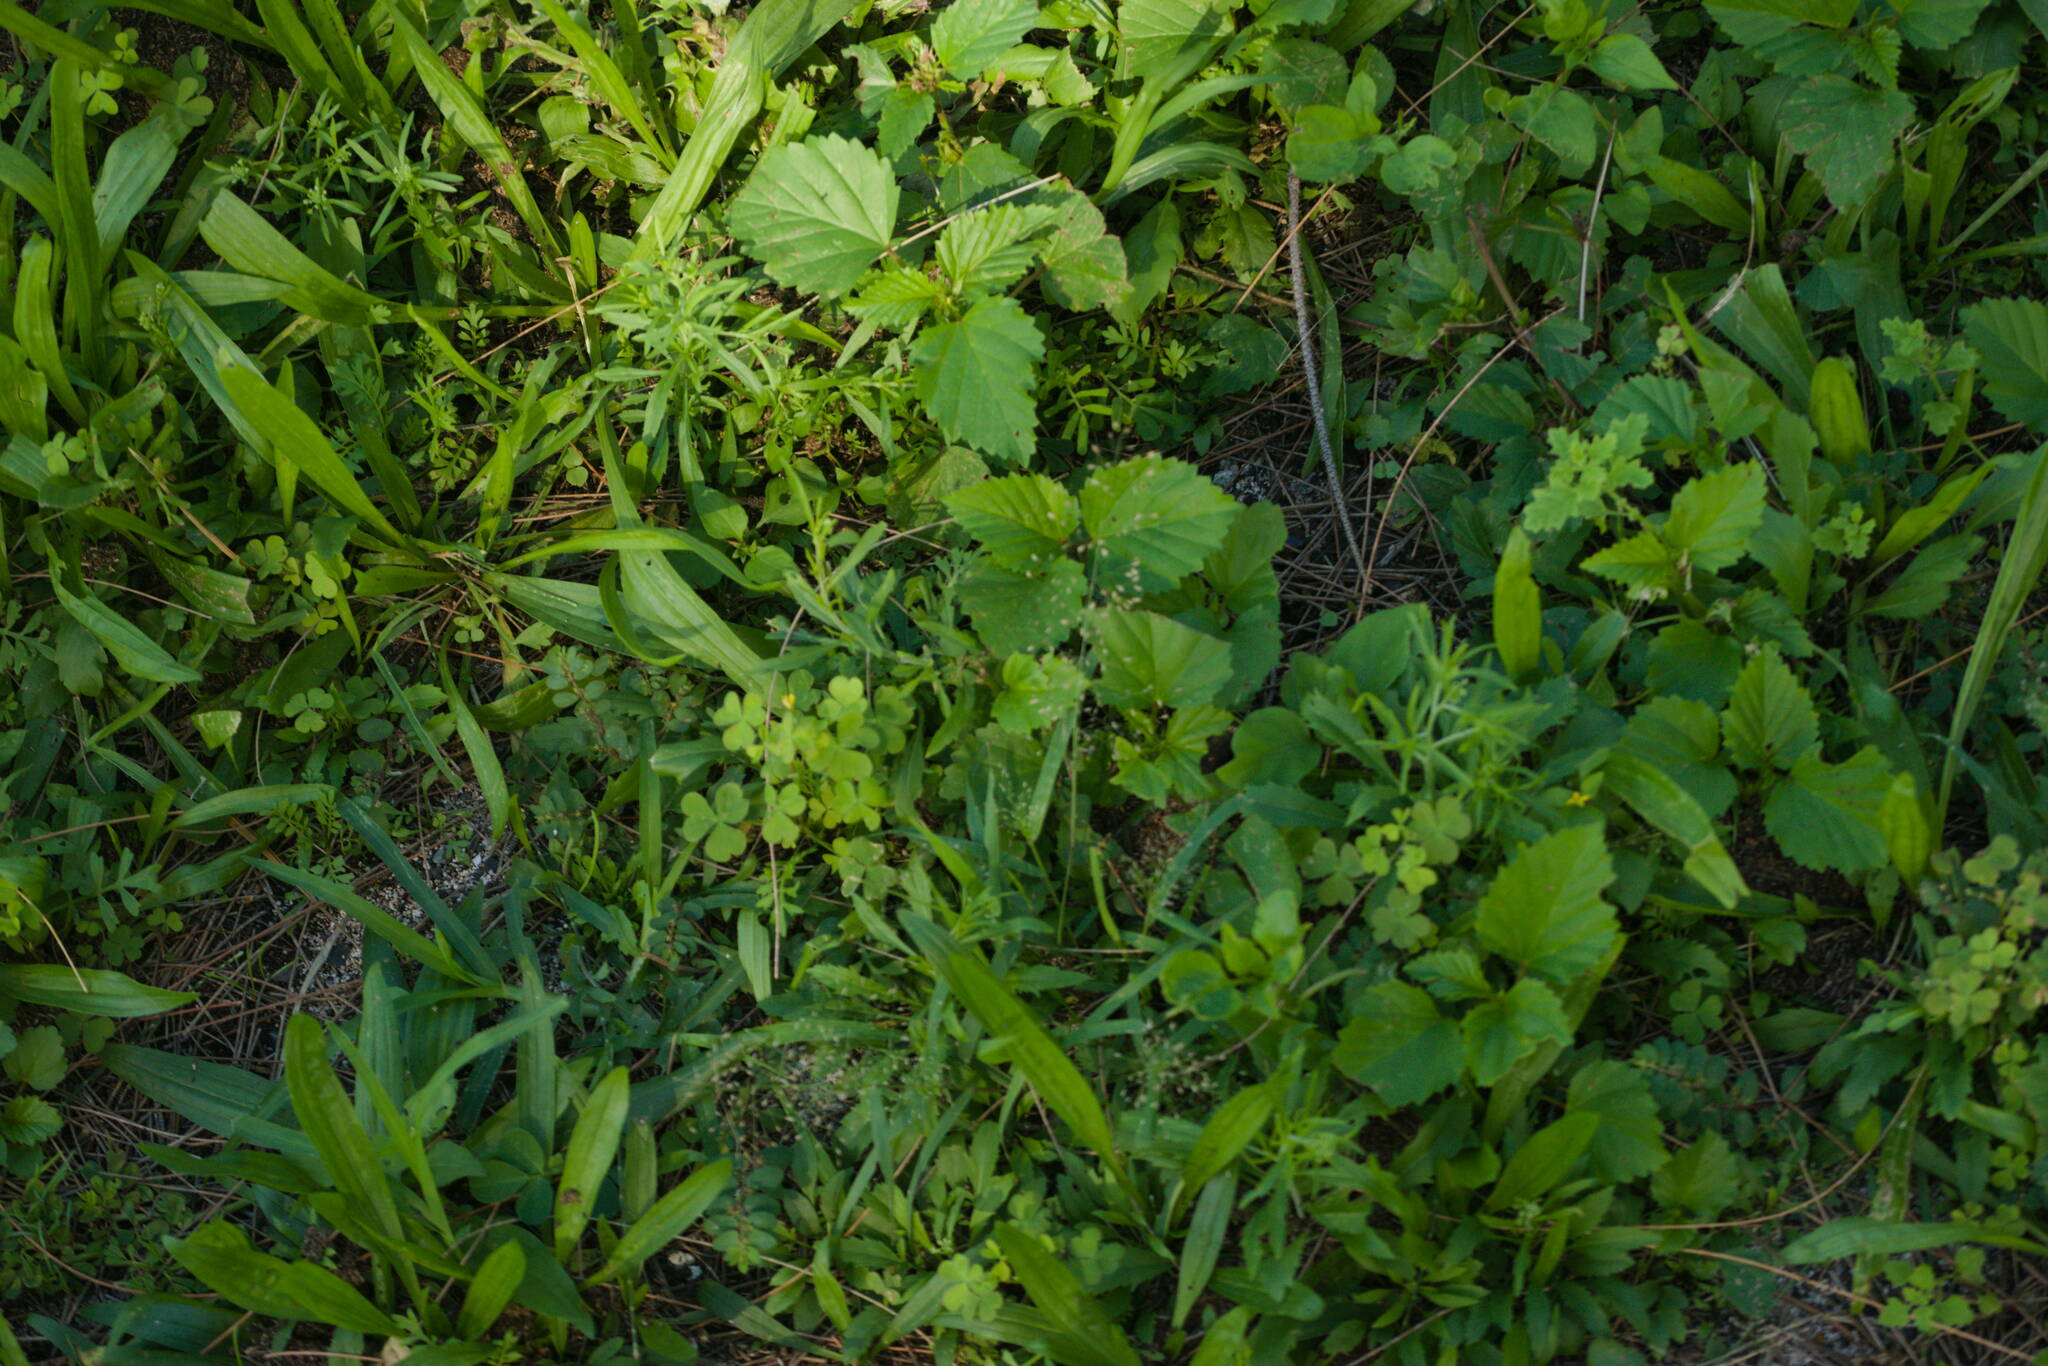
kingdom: Plantae
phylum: Tracheophyta
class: Liliopsida
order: Poales
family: Poaceae
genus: Eragrostis
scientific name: Eragrostis tenella
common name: Japanese lovegrass
